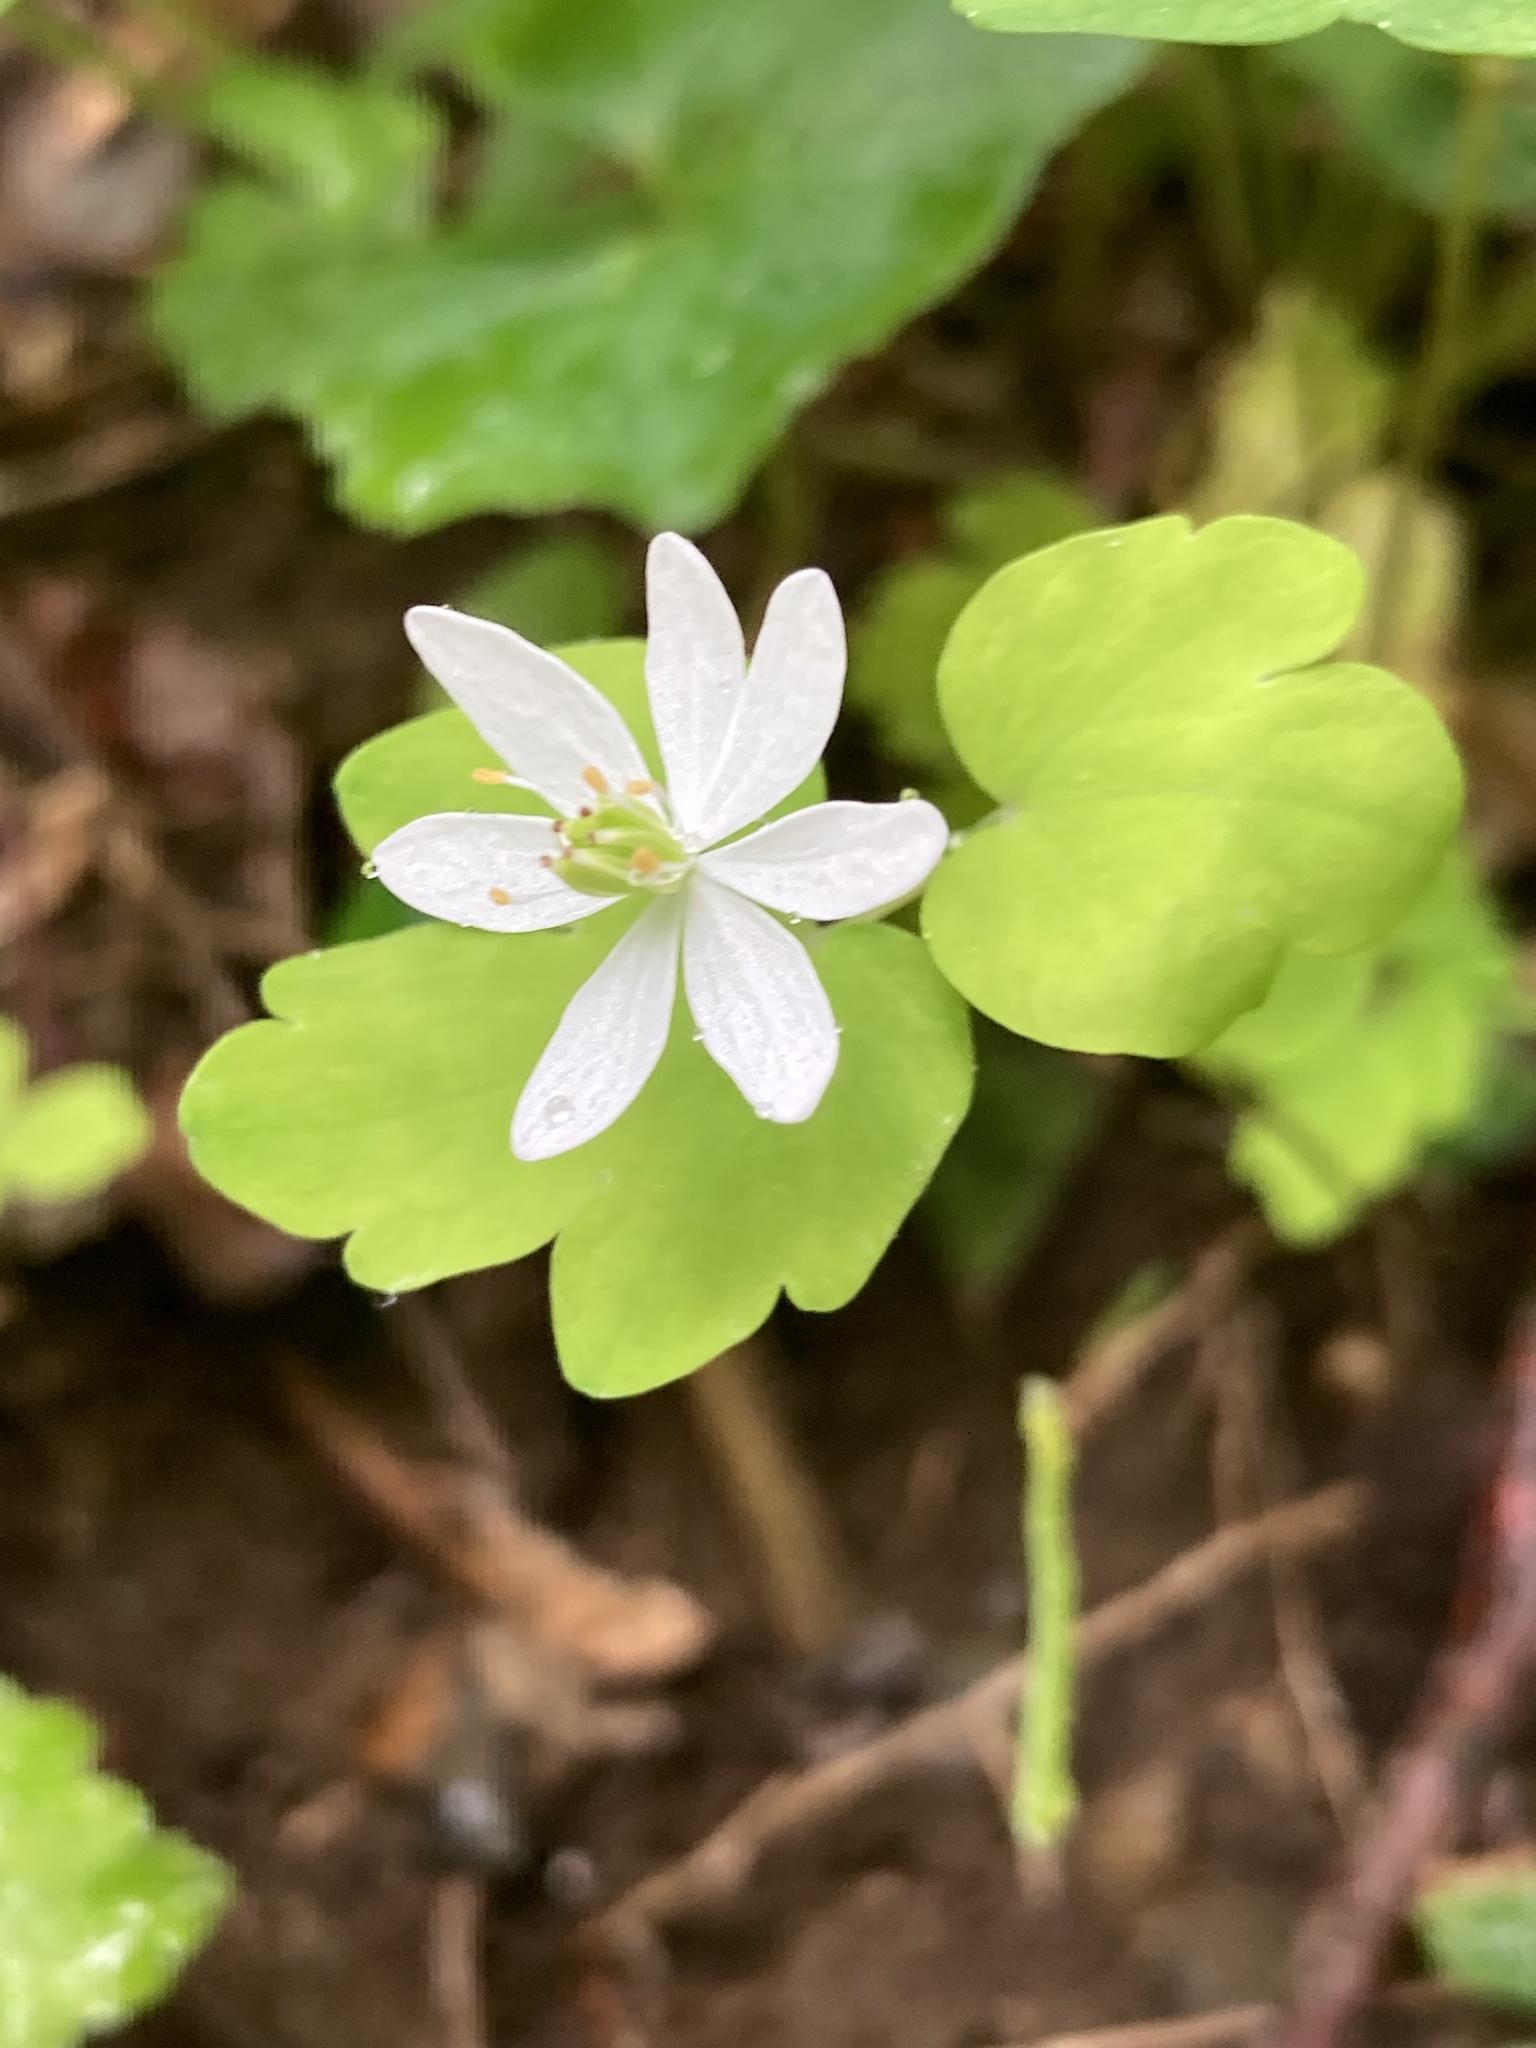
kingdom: Plantae
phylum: Tracheophyta
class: Magnoliopsida
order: Ranunculales
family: Ranunculaceae
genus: Thalictrum
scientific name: Thalictrum thalictroides
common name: Rue-anemone
